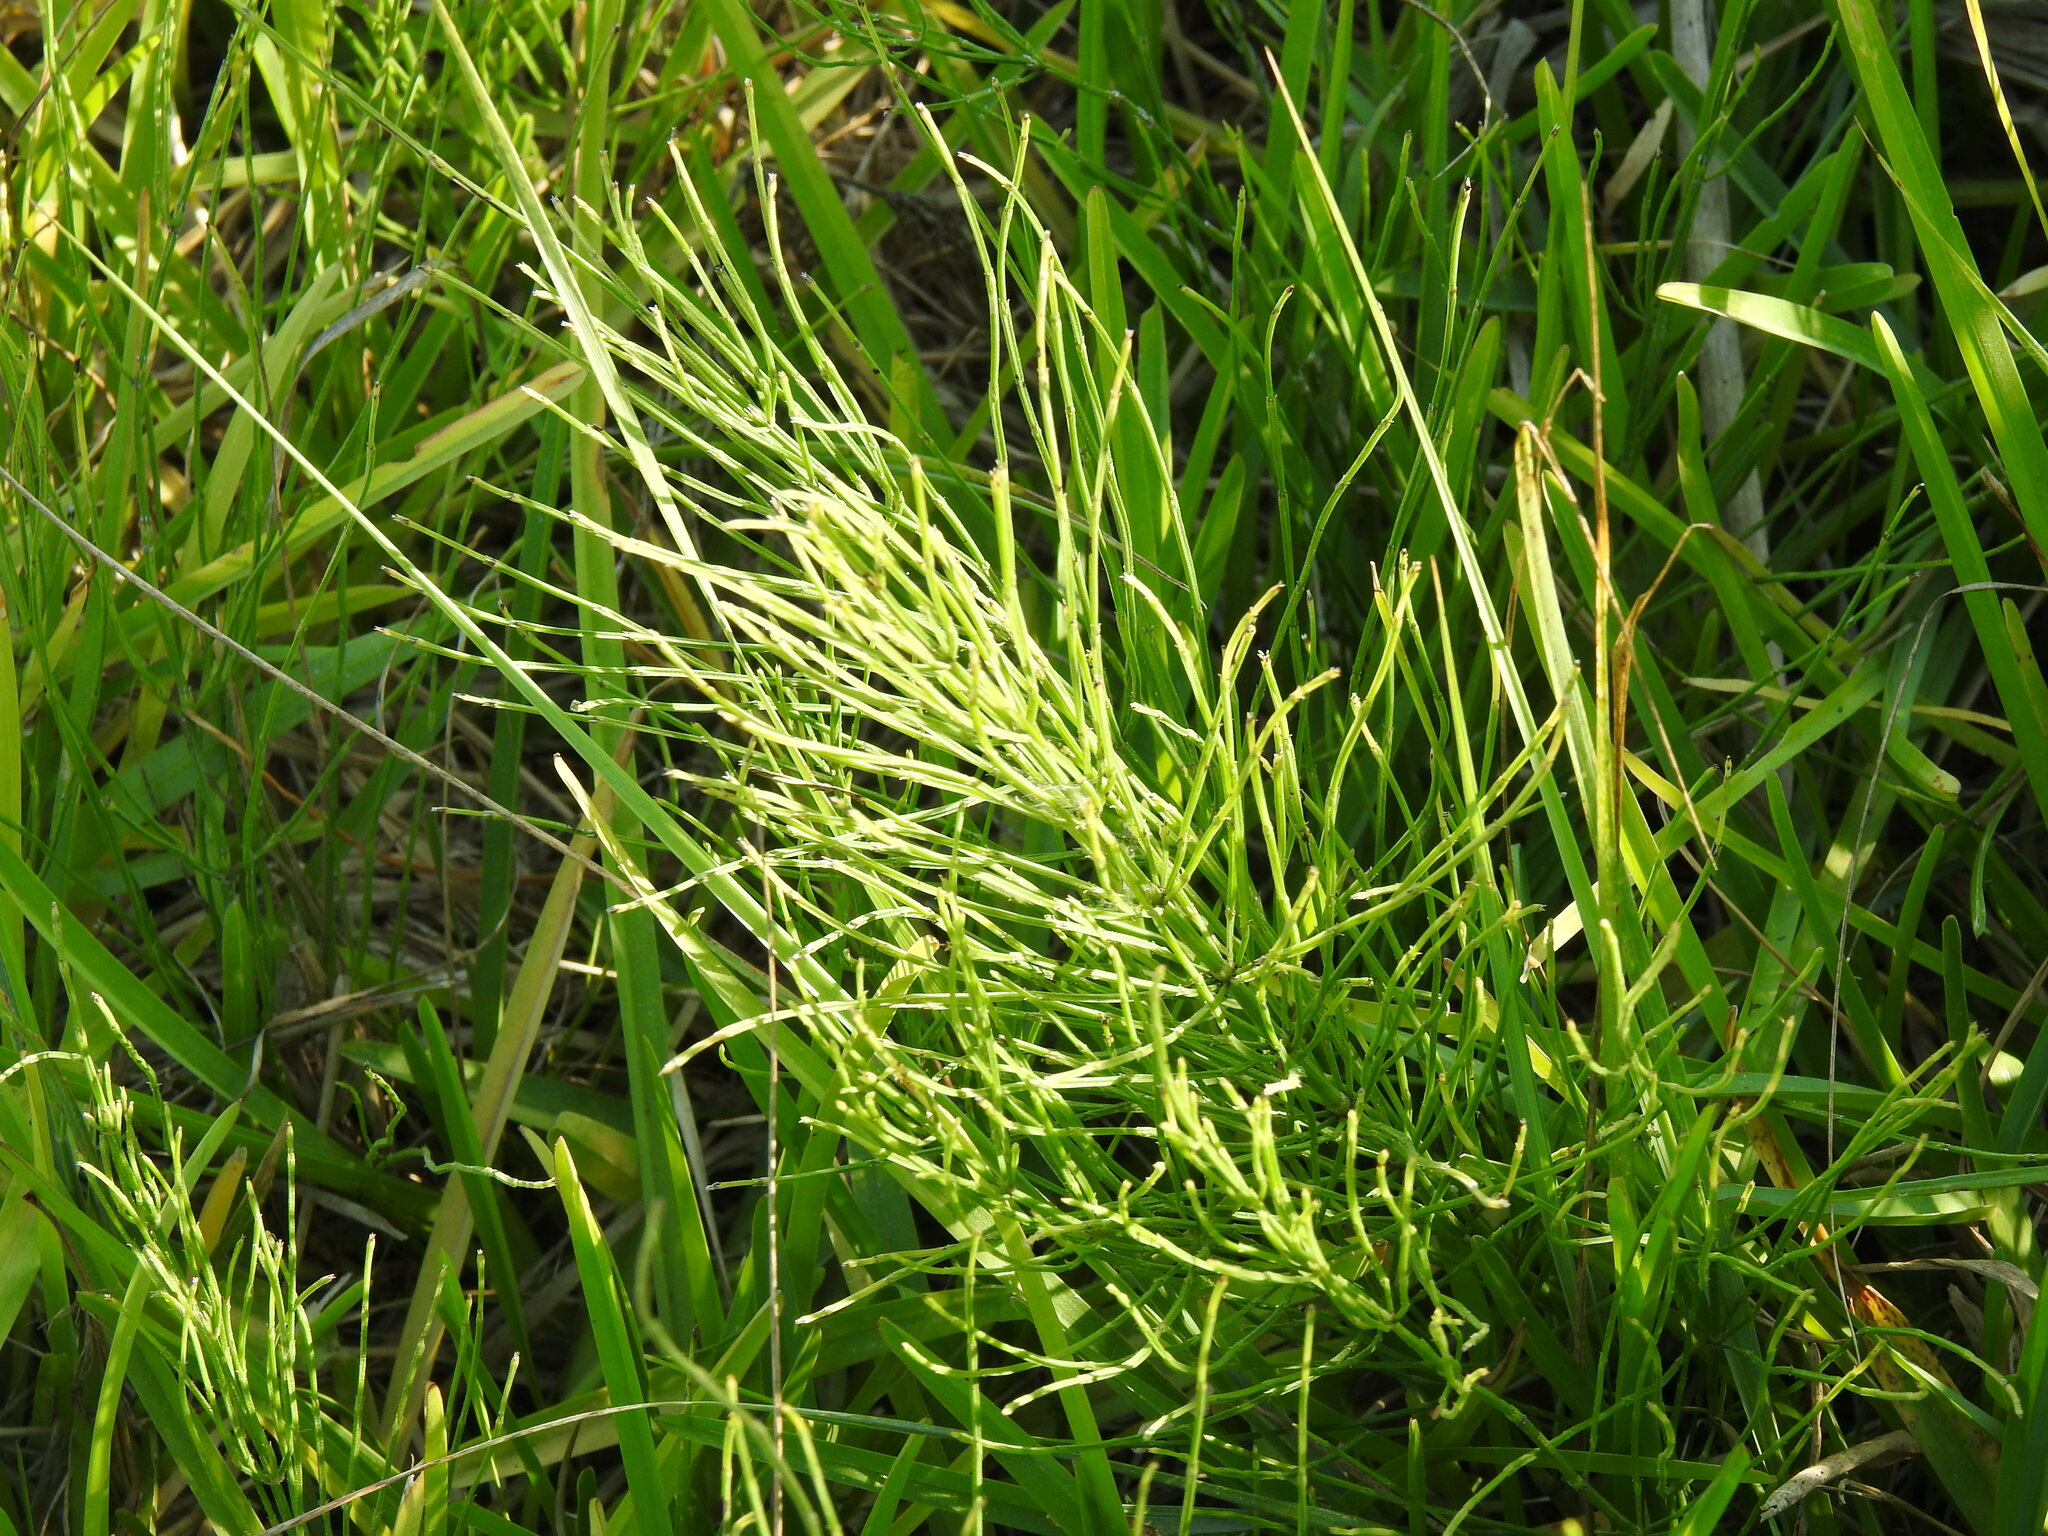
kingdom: Plantae
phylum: Tracheophyta
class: Polypodiopsida
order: Equisetales
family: Equisetaceae
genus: Equisetum
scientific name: Equisetum arvense
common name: Field horsetail
